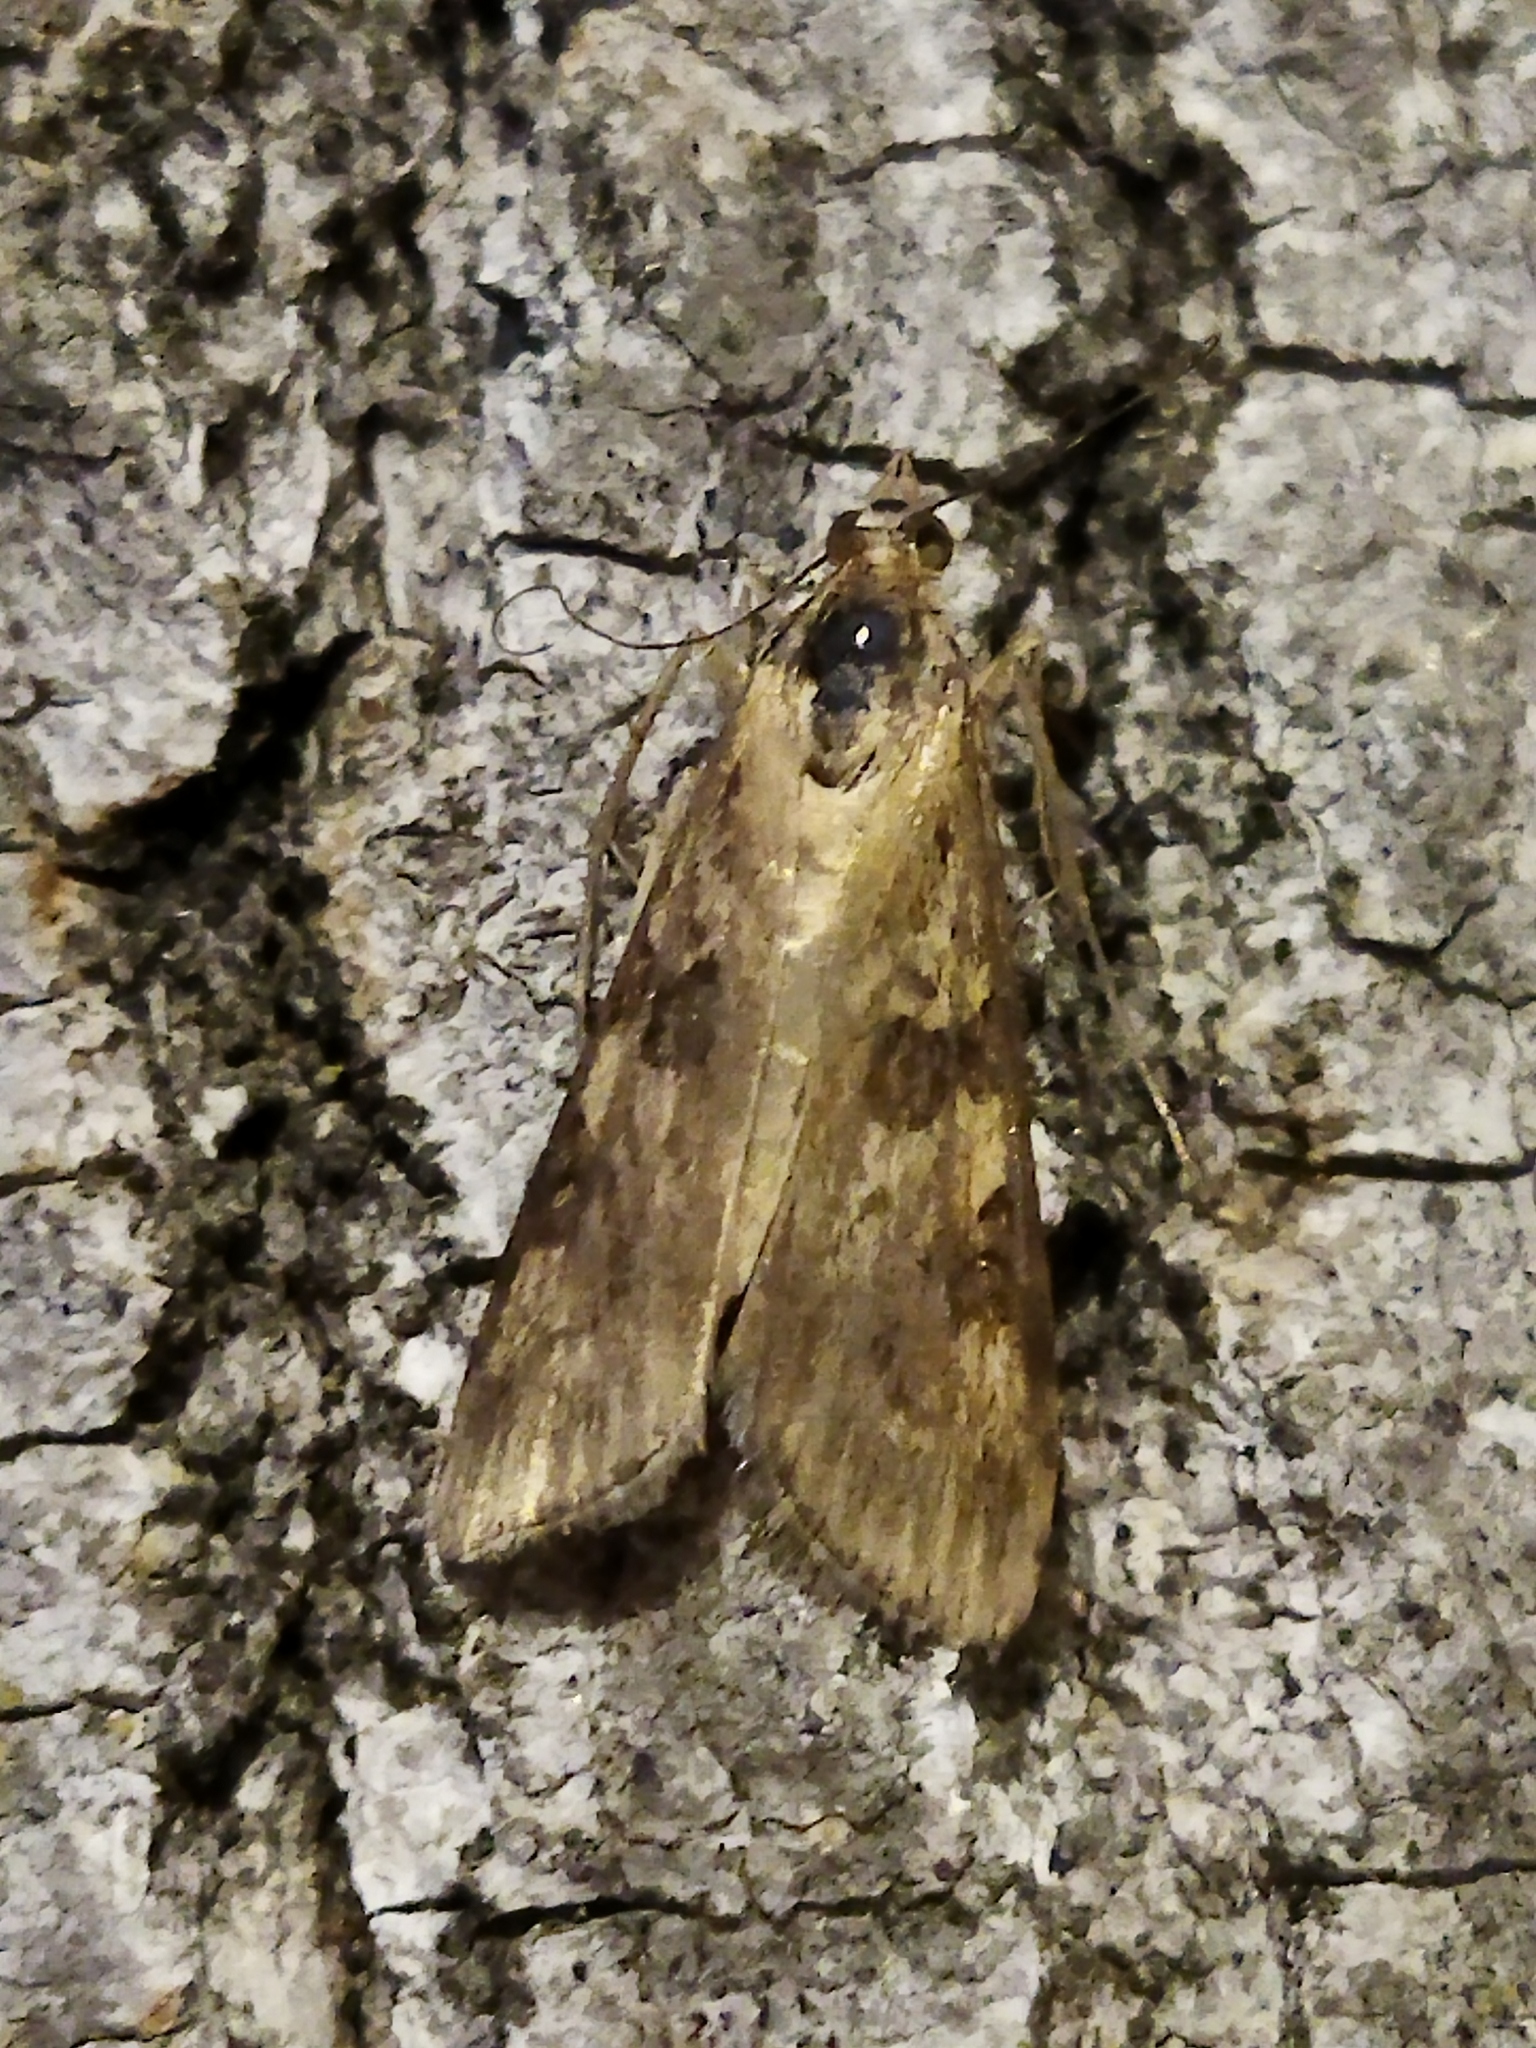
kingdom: Animalia
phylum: Arthropoda
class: Insecta
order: Lepidoptera
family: Crambidae
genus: Nomophila
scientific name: Nomophila noctuella
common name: Rush veneer
